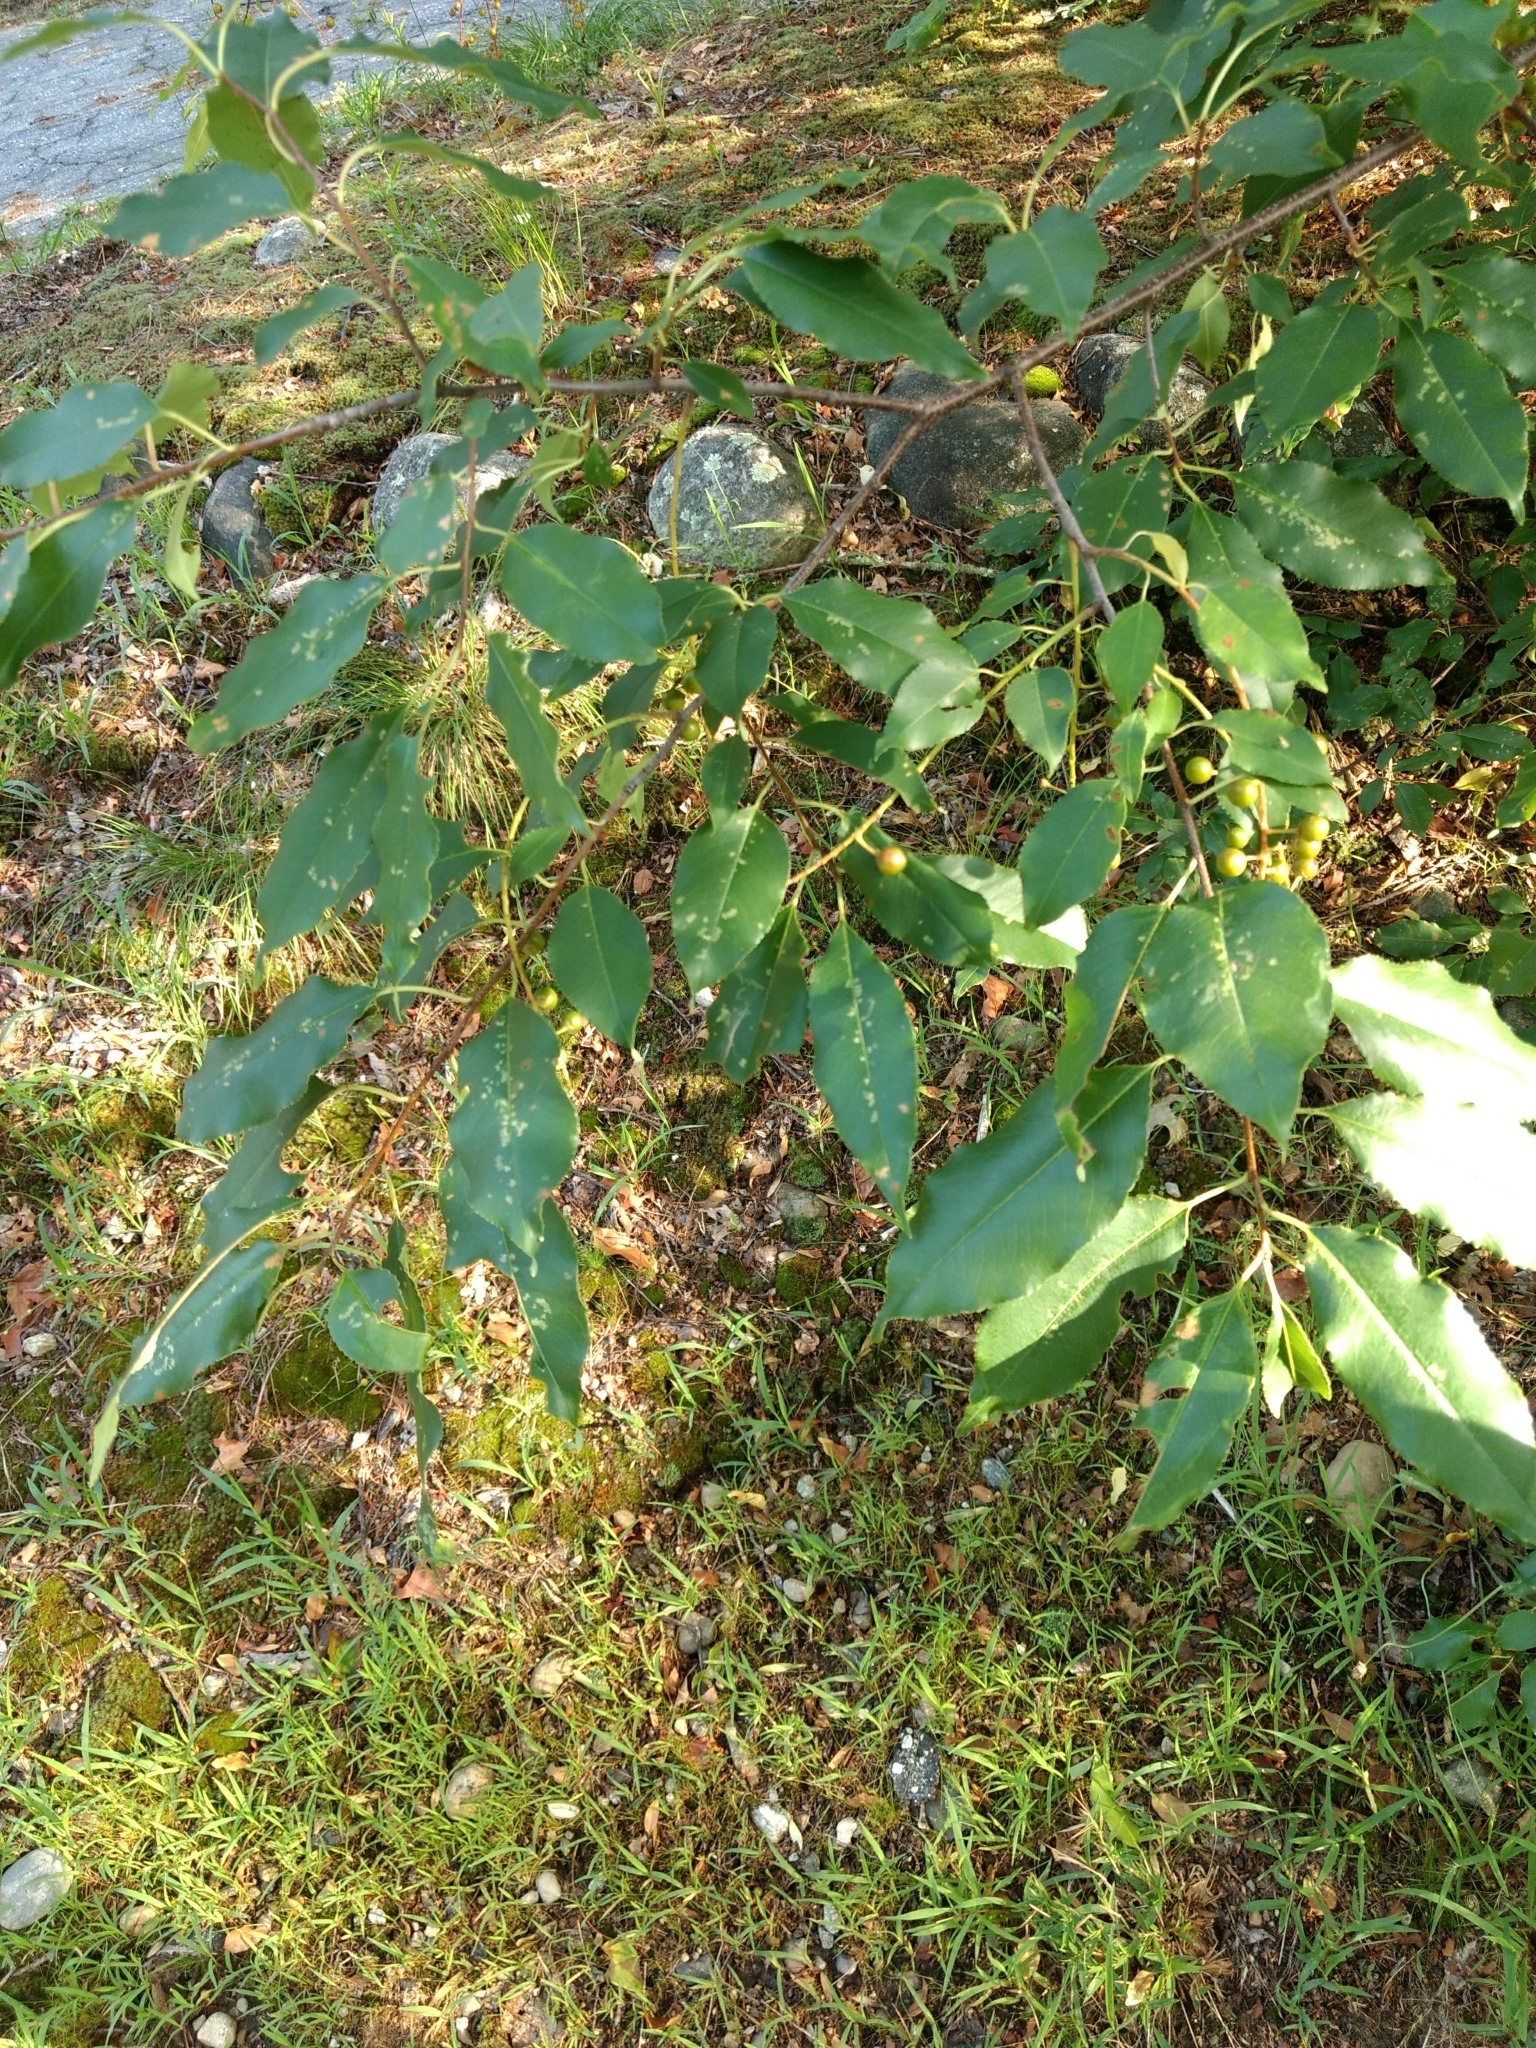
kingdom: Plantae
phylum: Tracheophyta
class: Magnoliopsida
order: Rosales
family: Rosaceae
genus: Prunus
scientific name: Prunus serotina
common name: Black cherry
